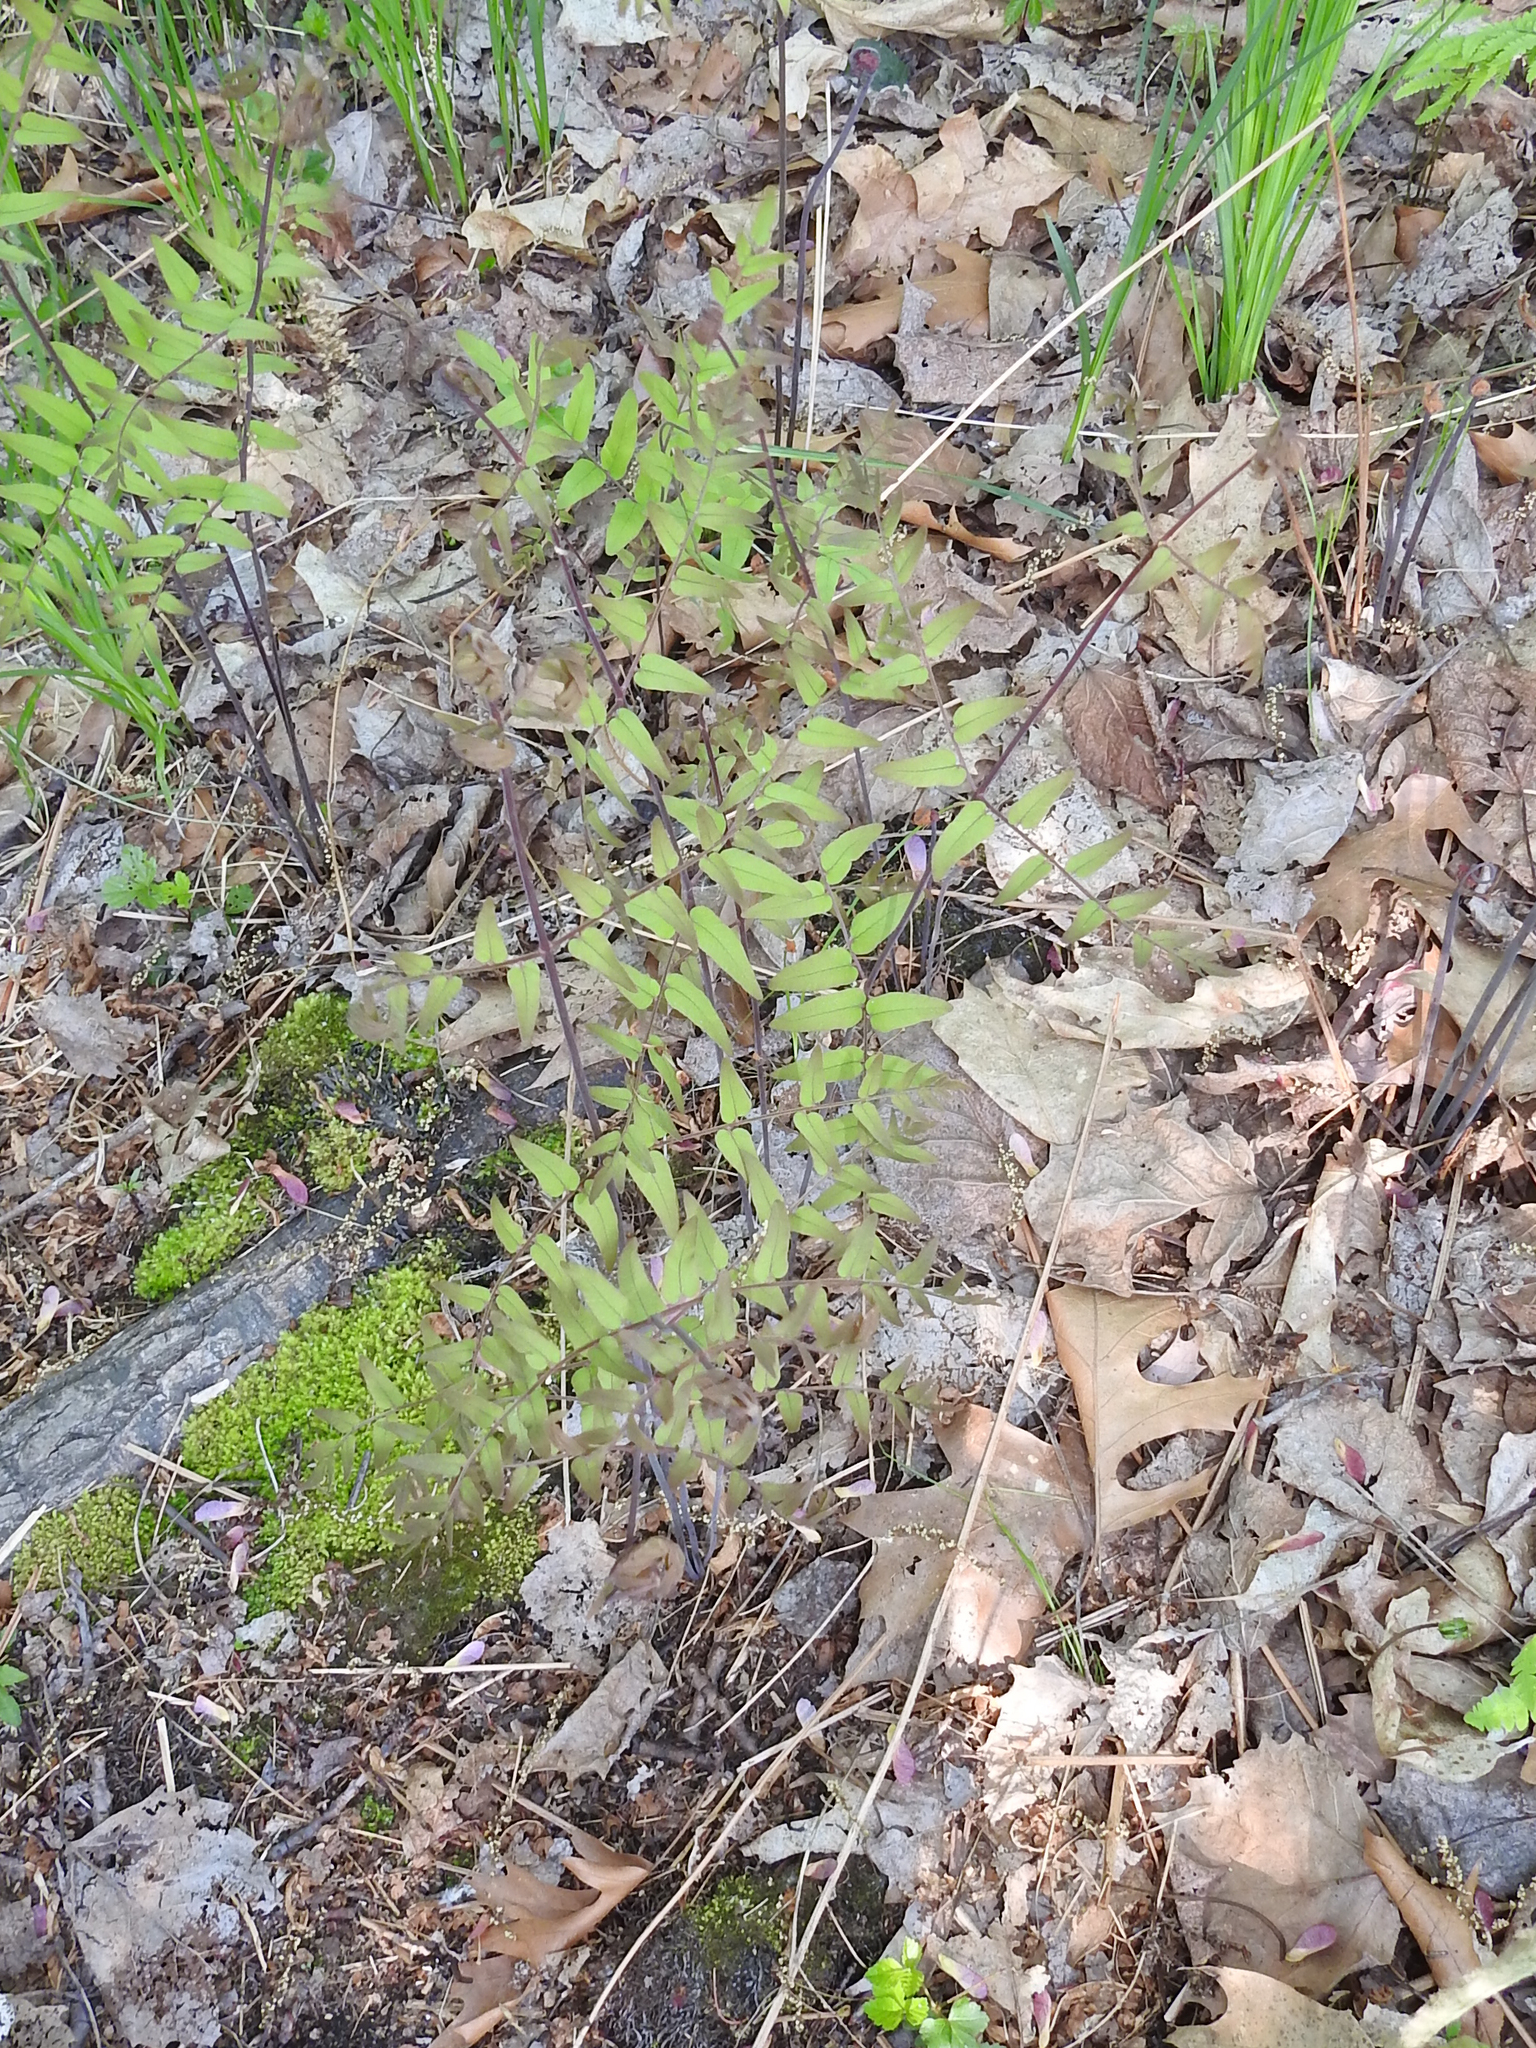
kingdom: Plantae
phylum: Tracheophyta
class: Polypodiopsida
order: Osmundales
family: Osmundaceae
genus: Osmunda
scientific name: Osmunda spectabilis
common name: American royal fern
